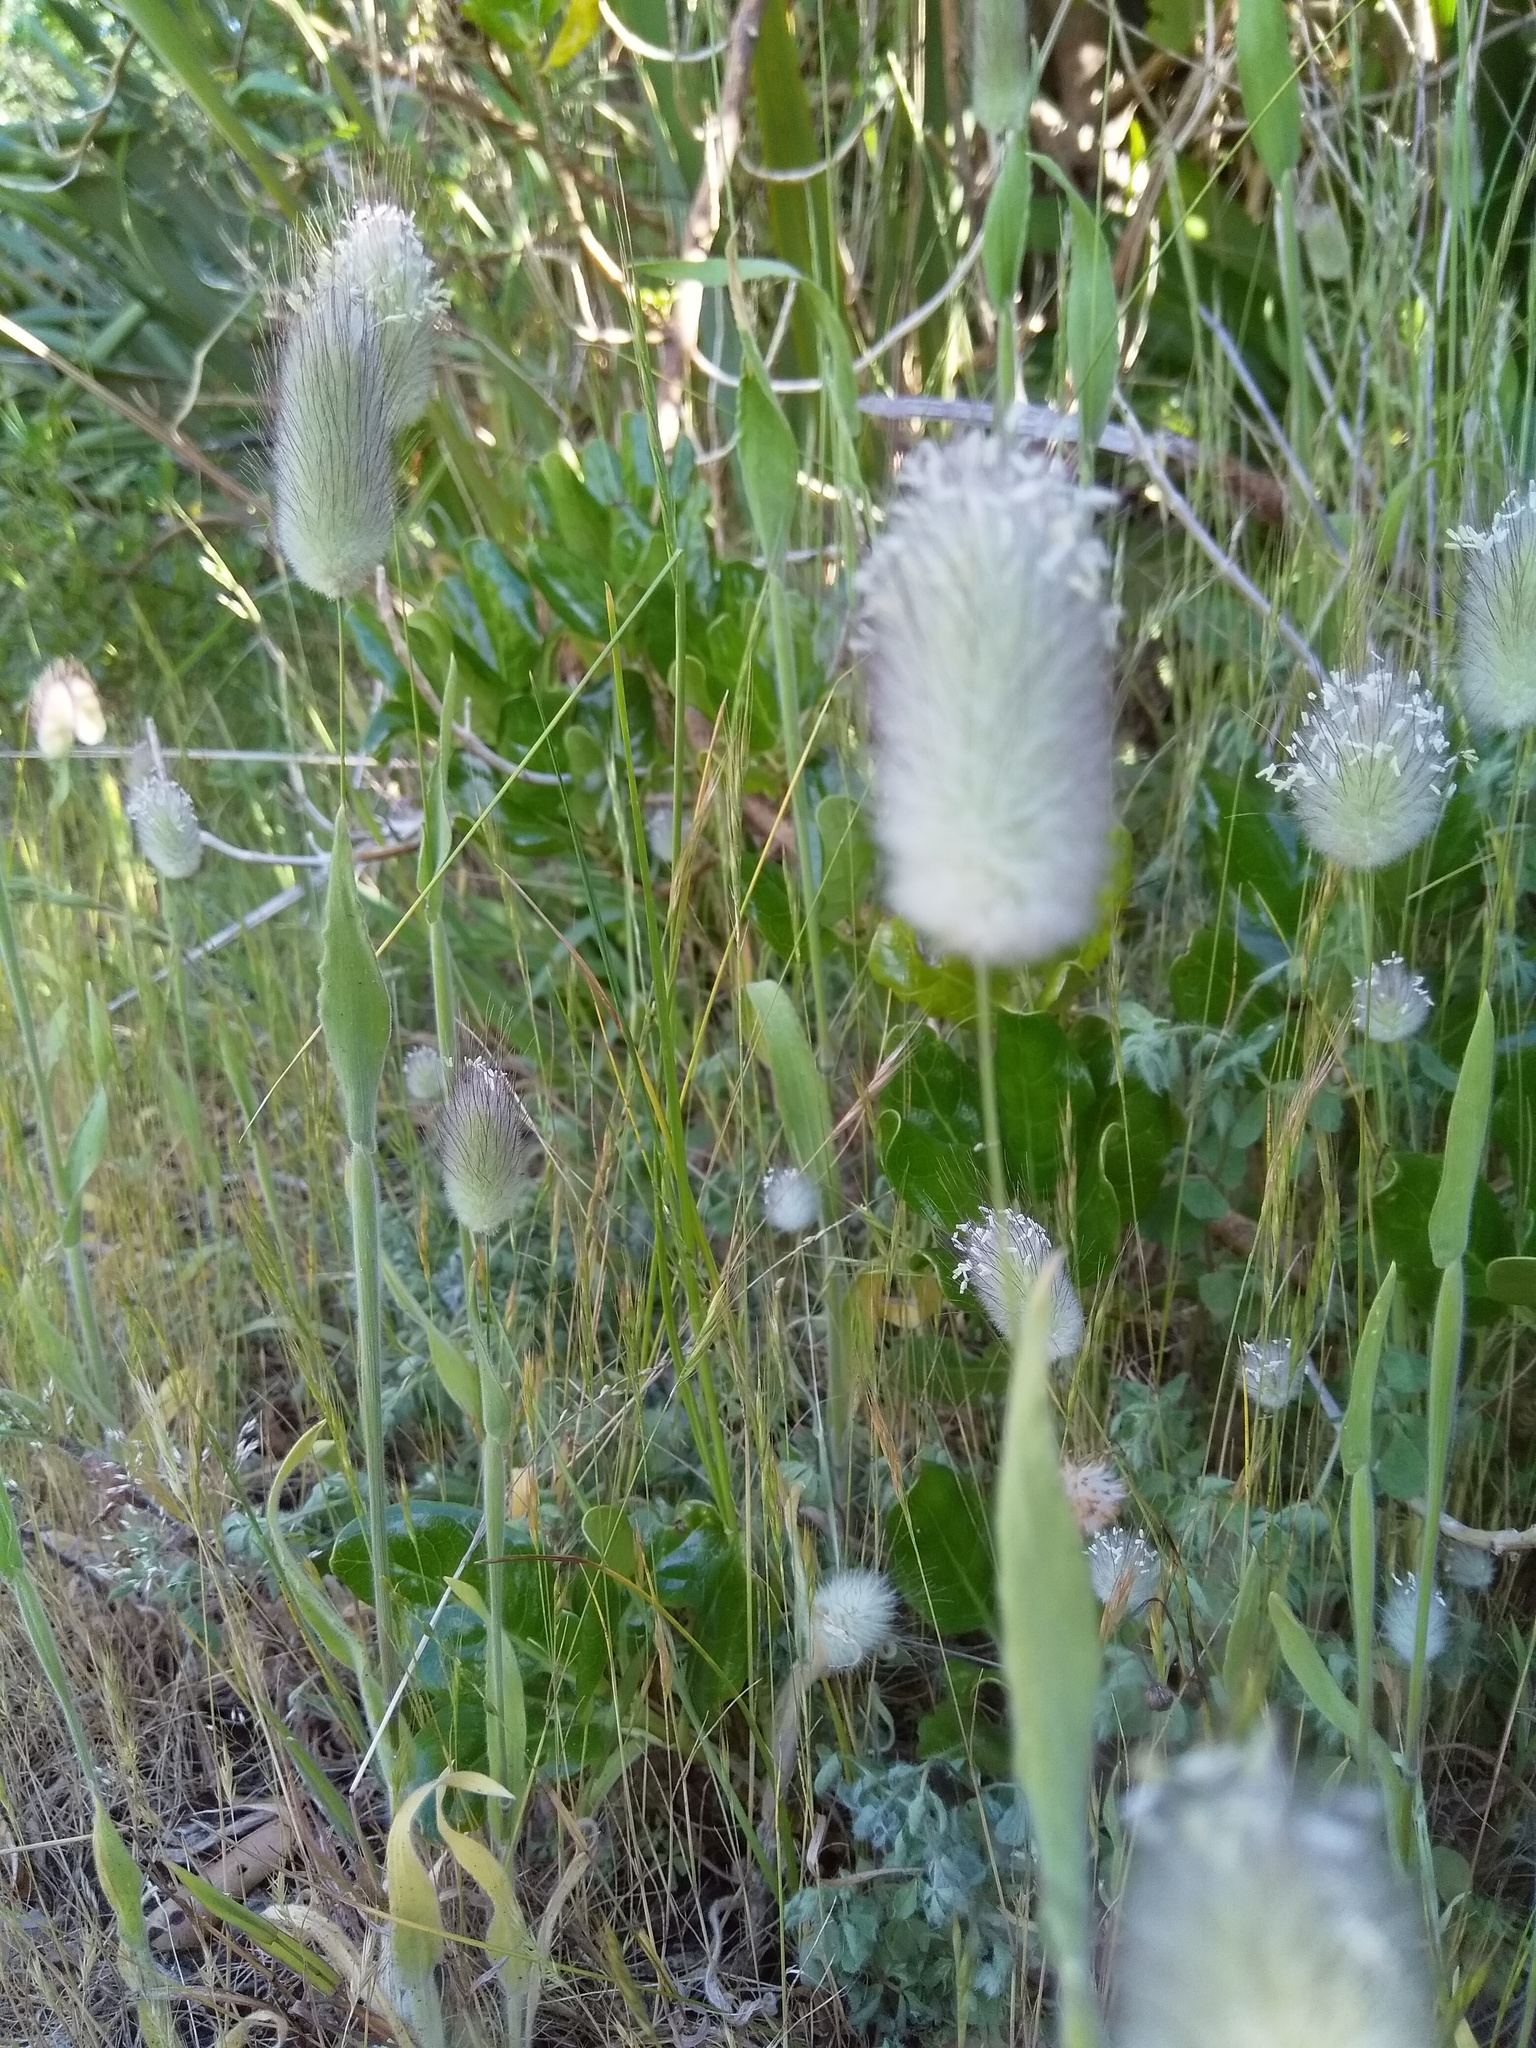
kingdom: Plantae
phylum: Tracheophyta
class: Liliopsida
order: Poales
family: Poaceae
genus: Lagurus
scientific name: Lagurus ovatus
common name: Hare's-tail
